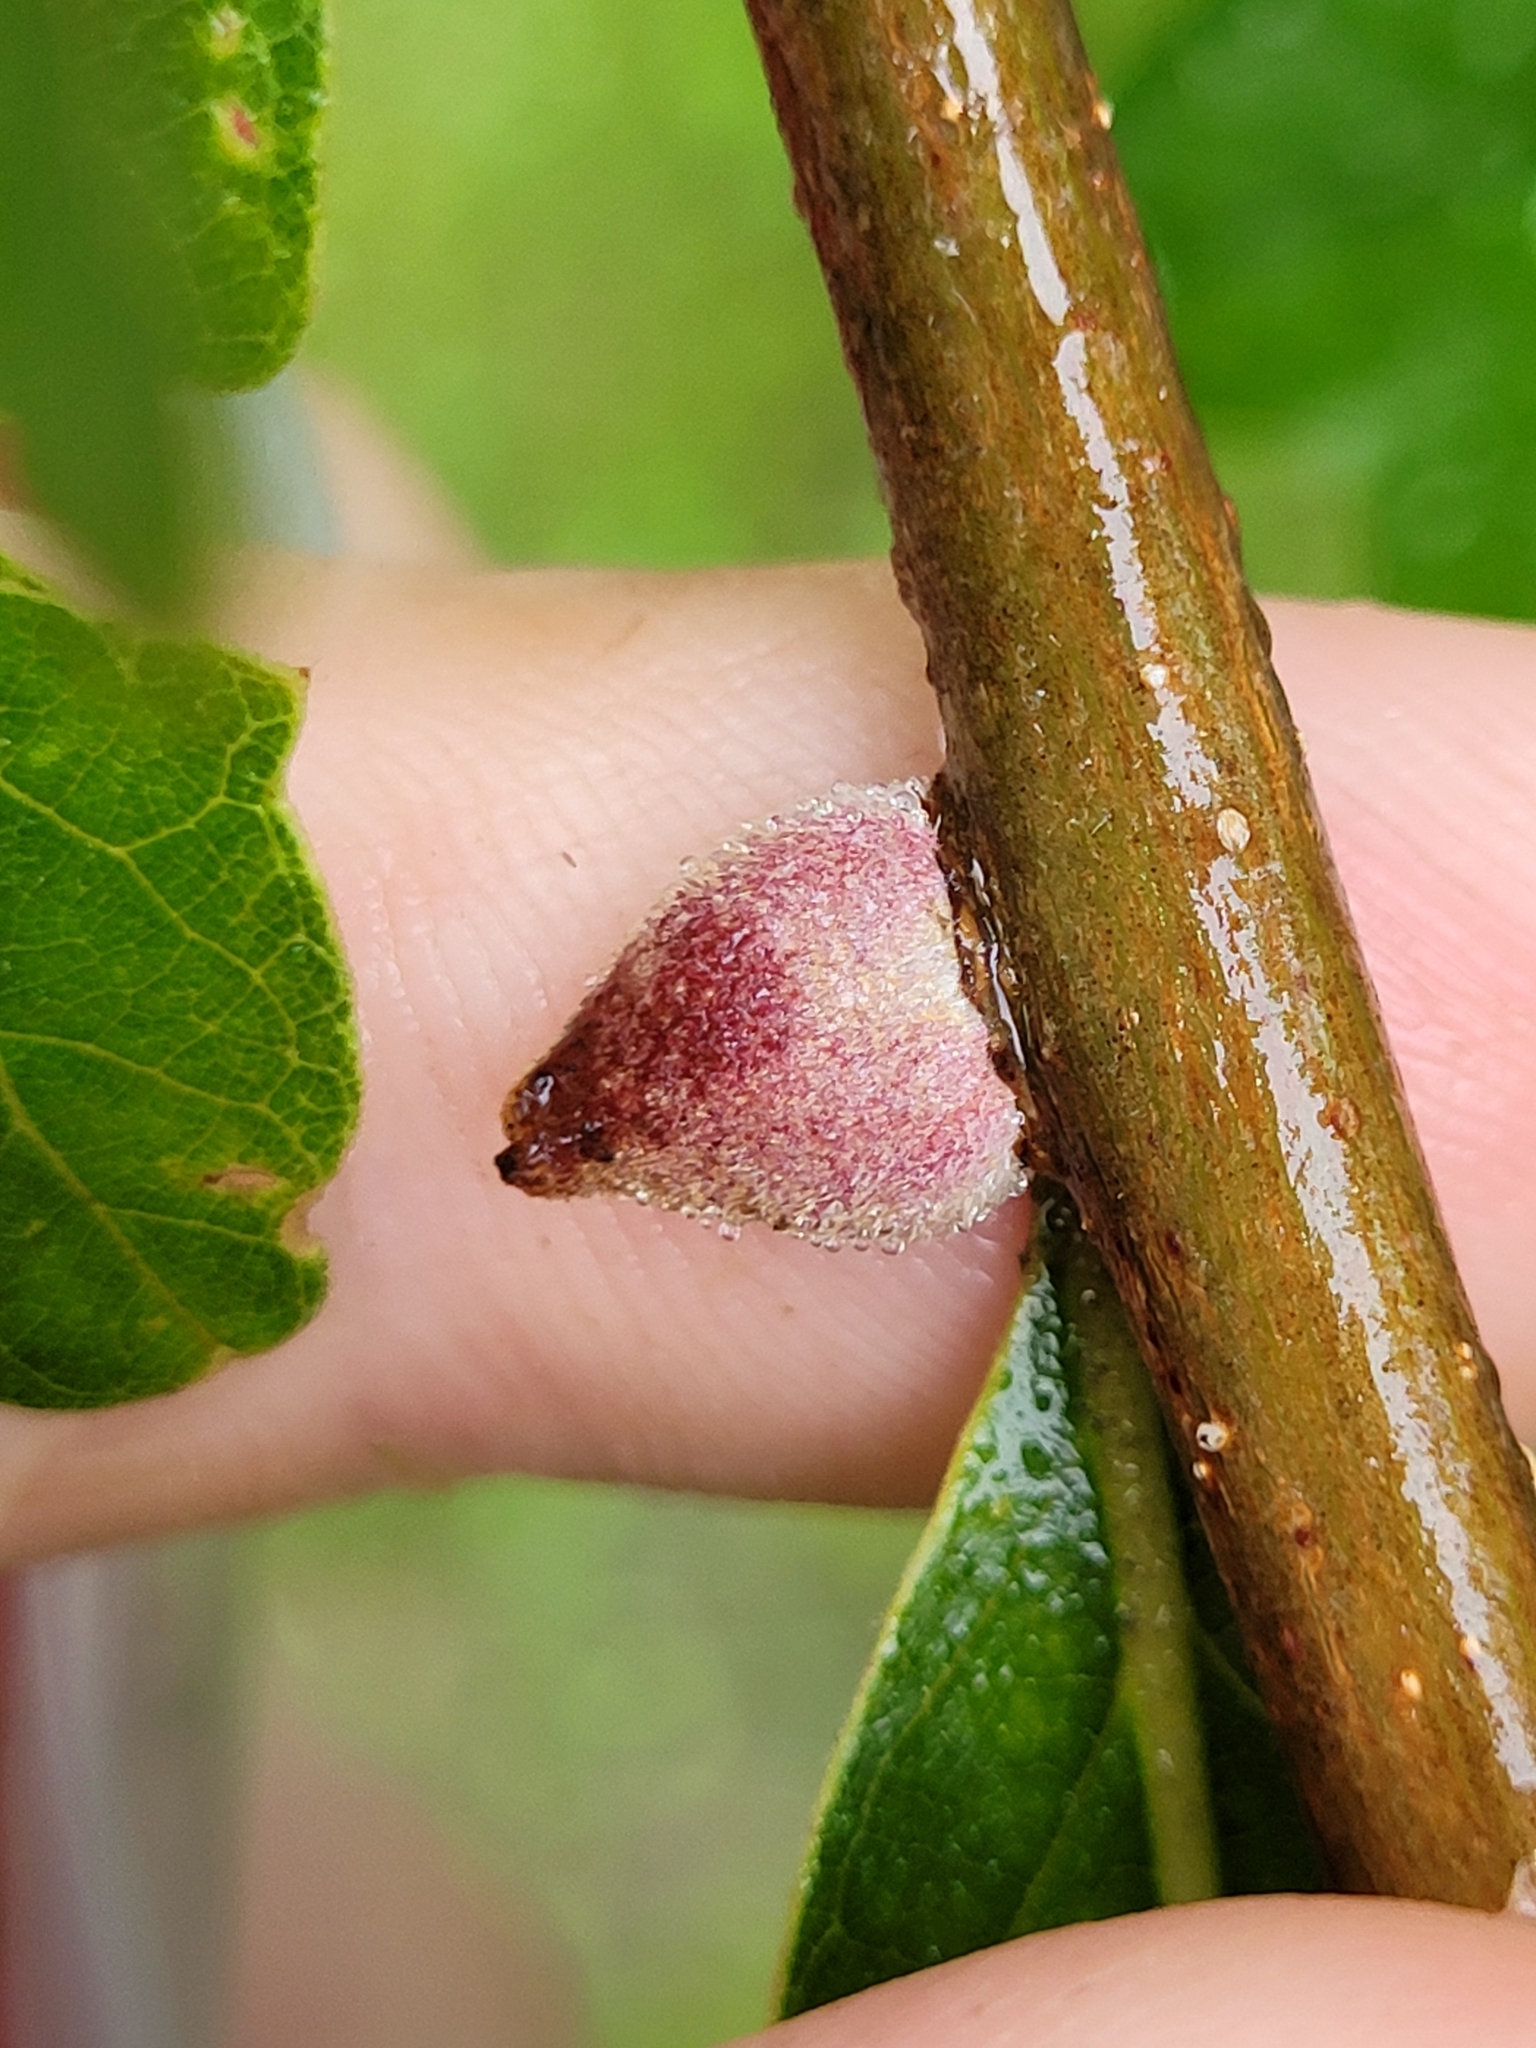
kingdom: Animalia
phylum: Arthropoda
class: Insecta
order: Hymenoptera
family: Cynipidae
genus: Disholcaspis
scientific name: Disholcaspis
